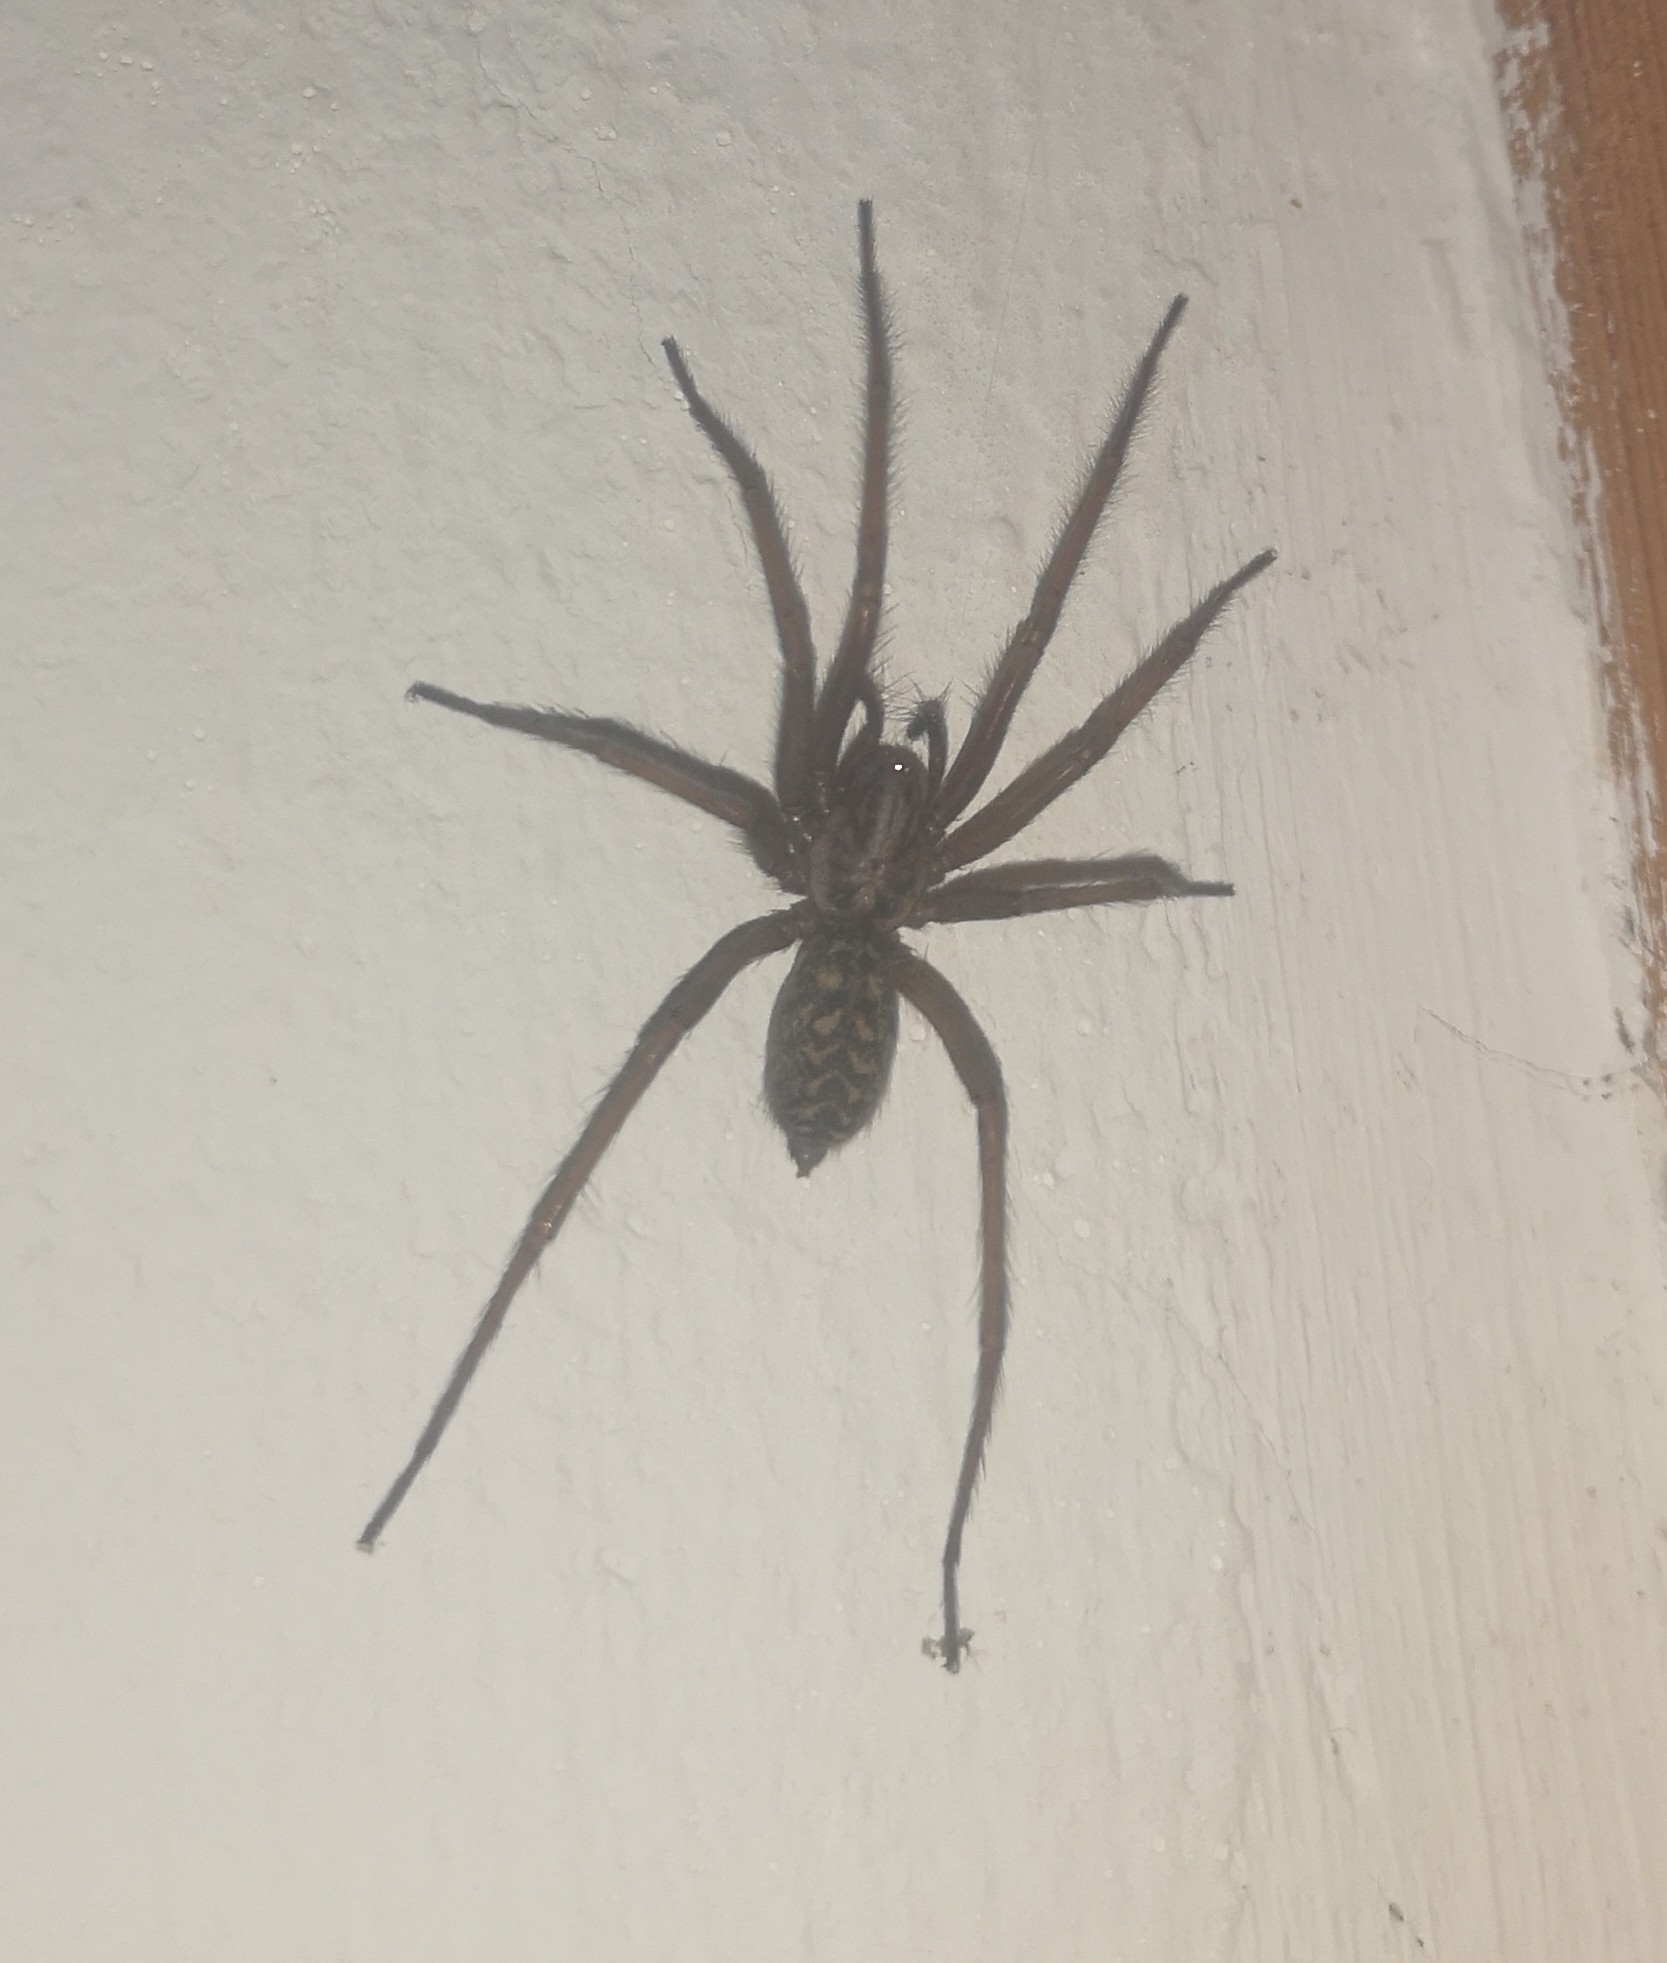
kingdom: Animalia
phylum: Arthropoda
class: Arachnida
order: Araneae
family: Agelenidae
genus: Eratigena
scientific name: Eratigena atrica
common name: Giant house spider
